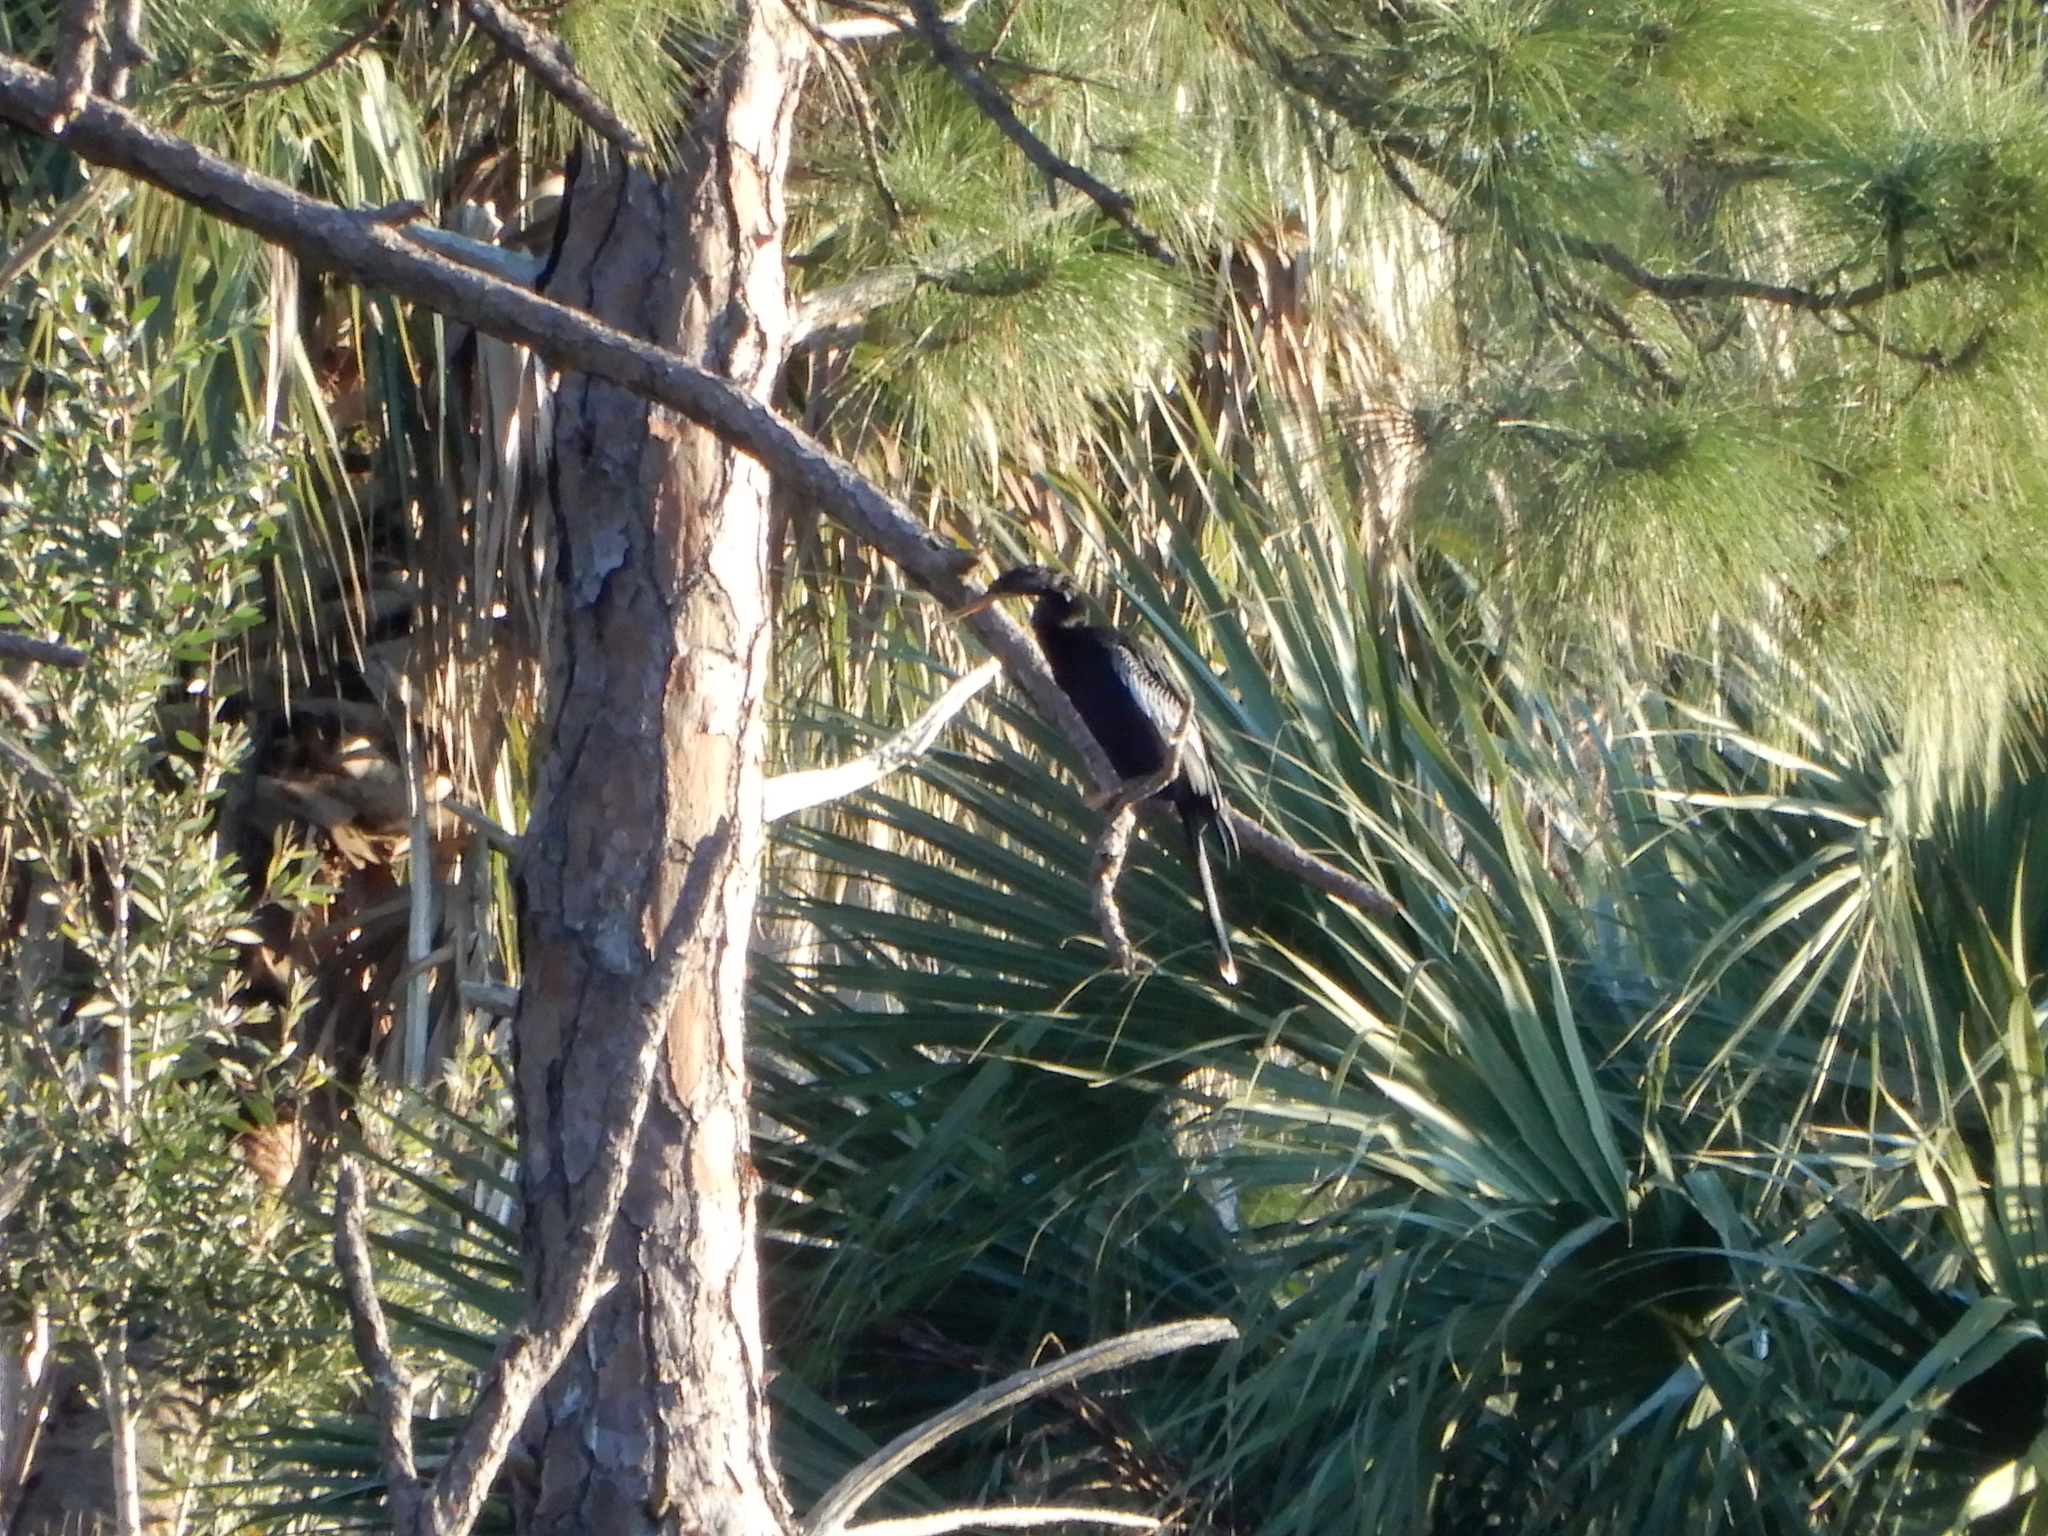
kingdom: Animalia
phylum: Chordata
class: Aves
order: Suliformes
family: Anhingidae
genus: Anhinga
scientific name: Anhinga anhinga
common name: Anhinga
